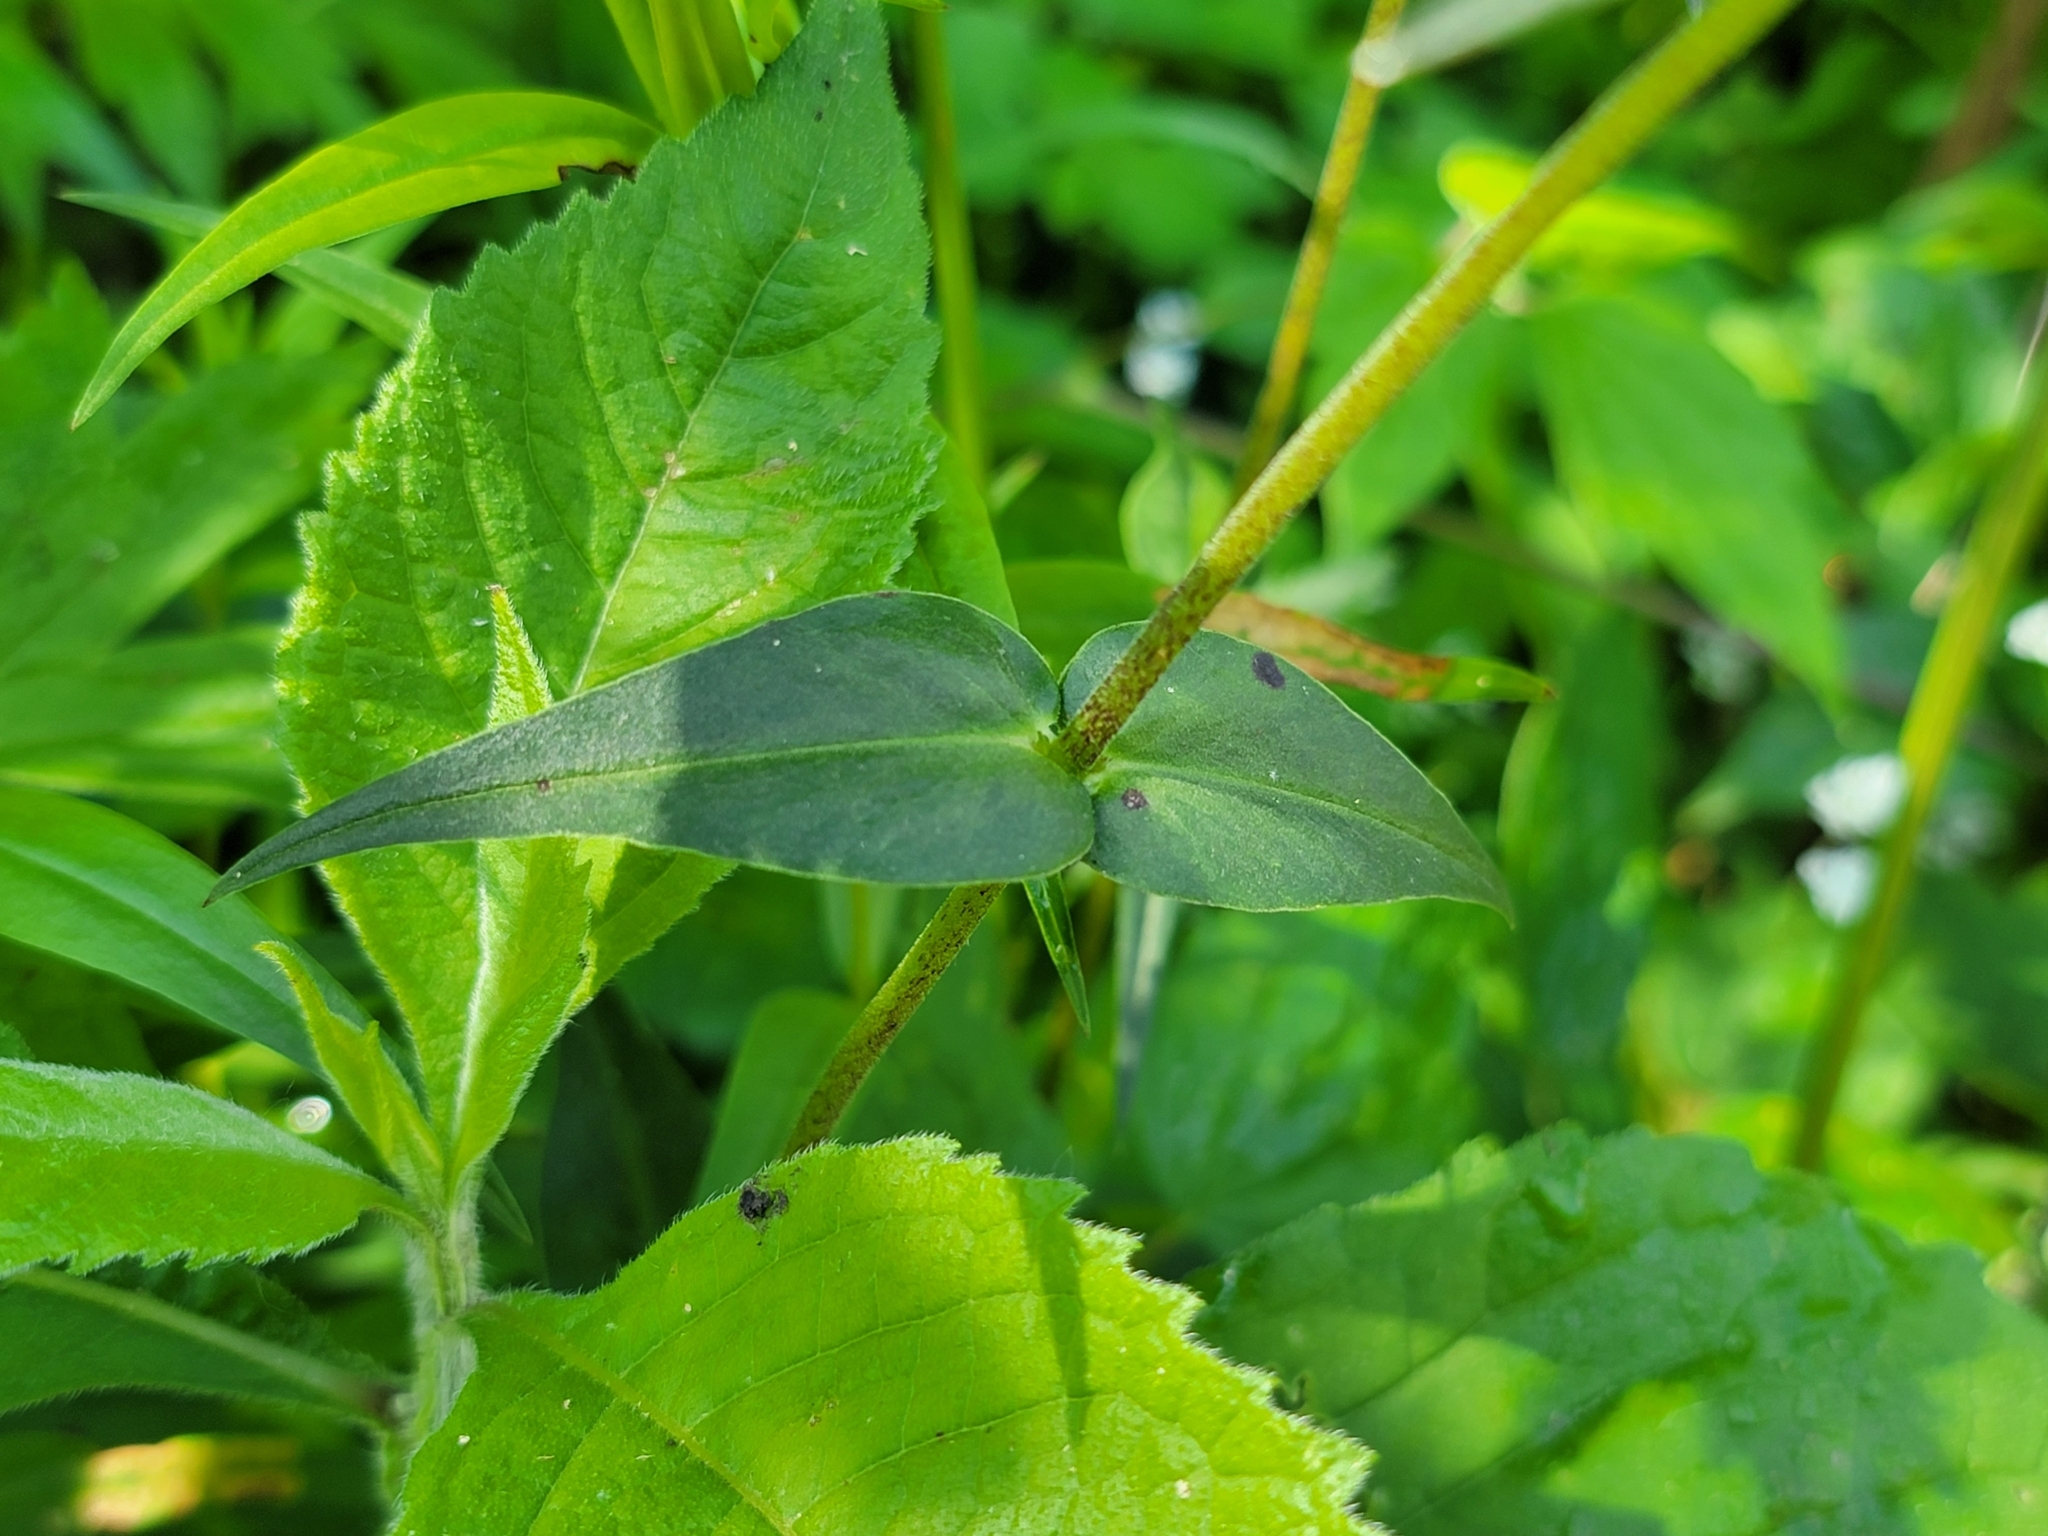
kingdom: Plantae
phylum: Tracheophyta
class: Magnoliopsida
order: Ericales
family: Polemoniaceae
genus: Phlox
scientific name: Phlox maculata
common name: Meadow phlox
